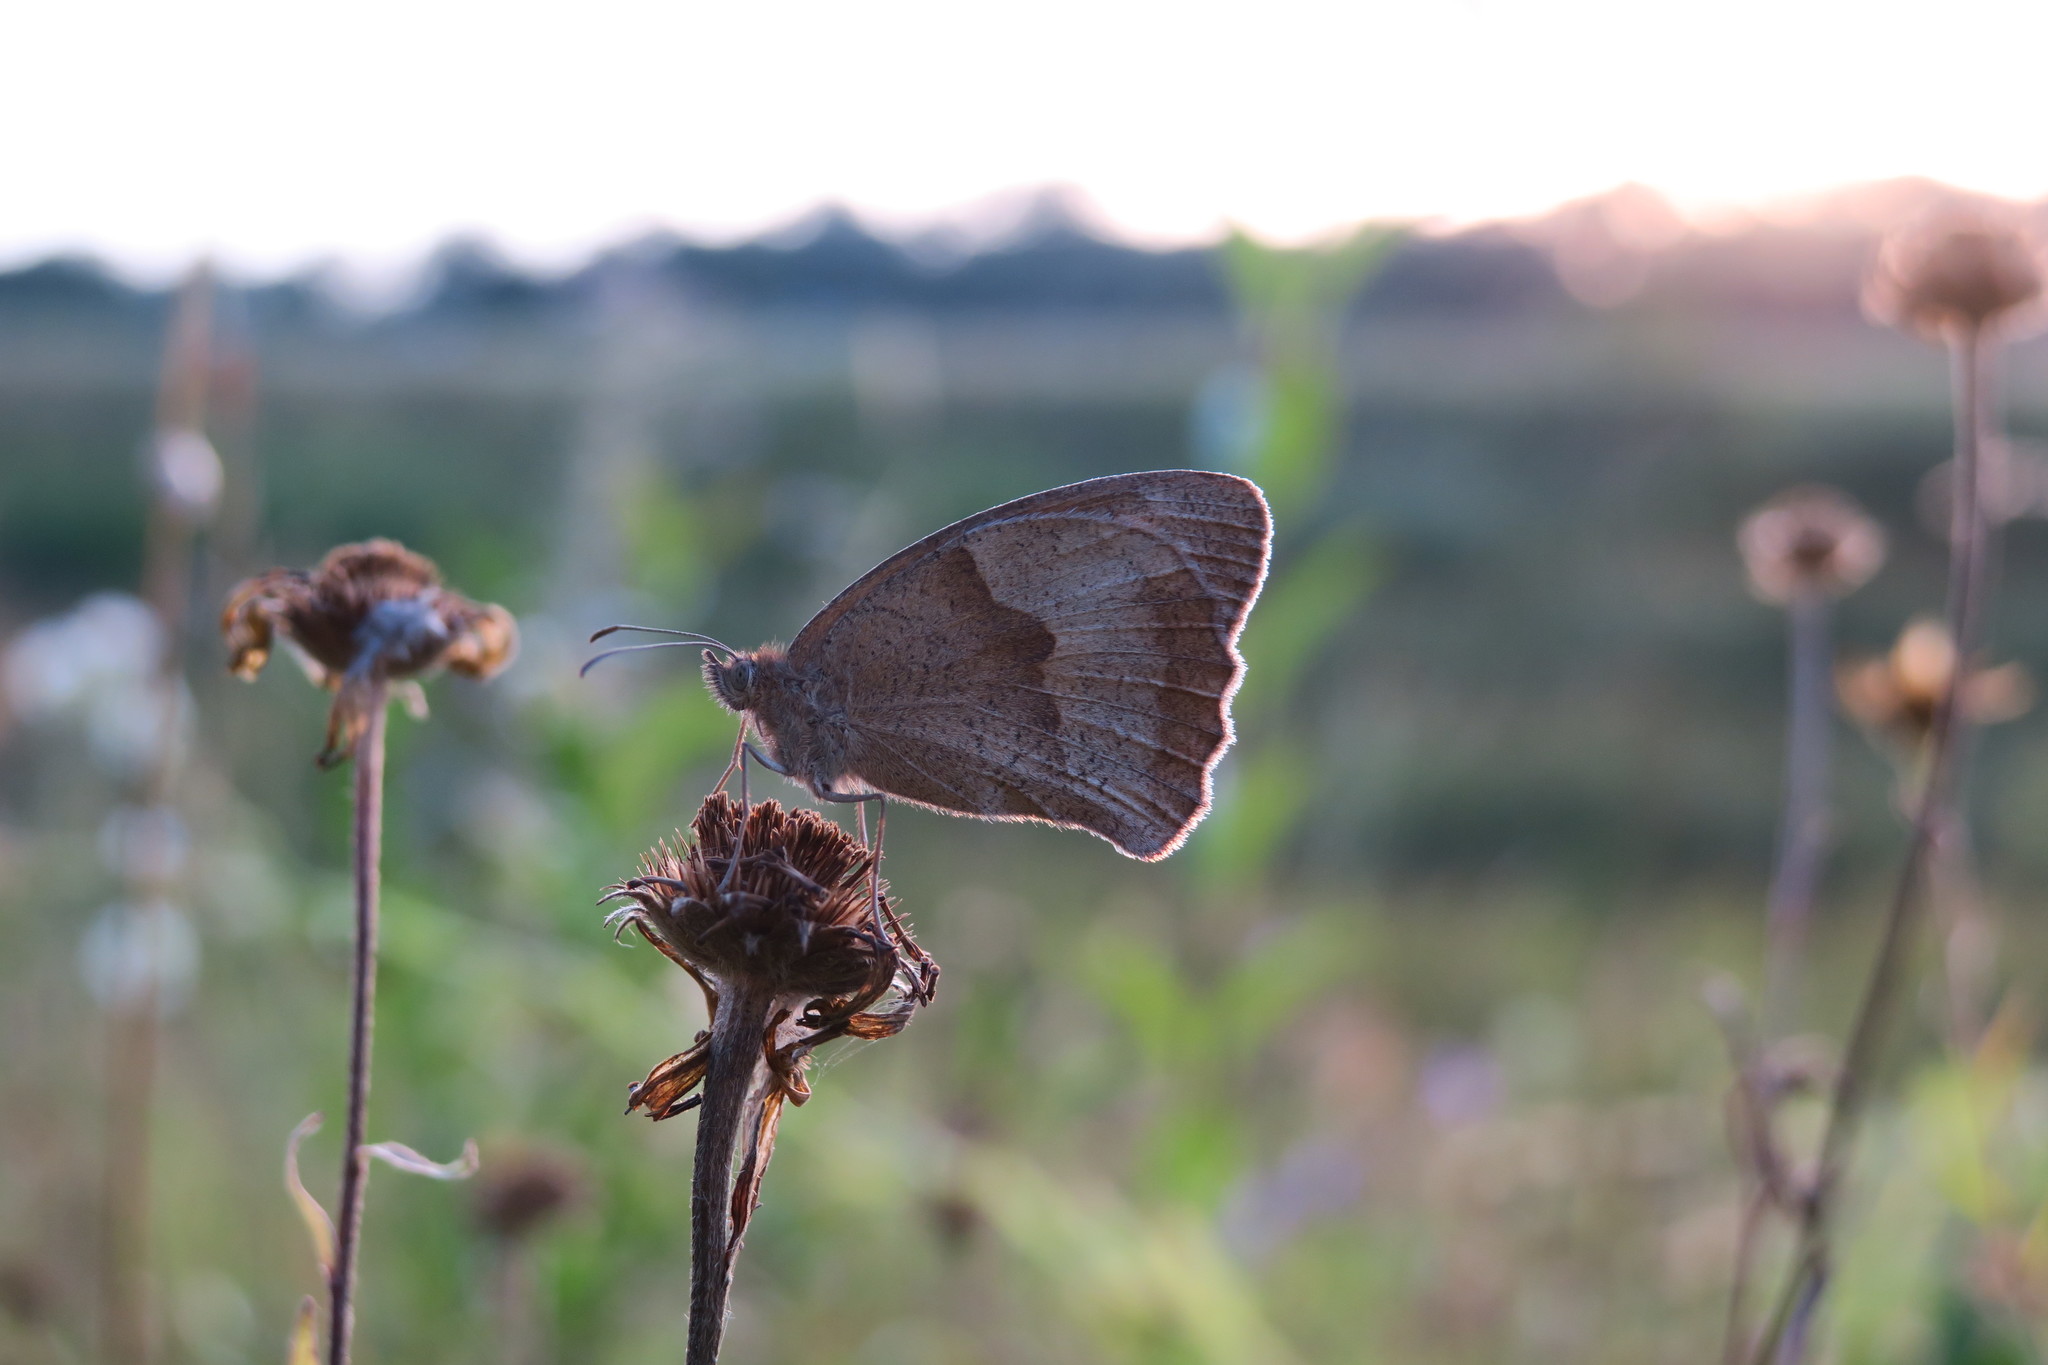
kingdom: Animalia
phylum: Arthropoda
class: Insecta
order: Lepidoptera
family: Nymphalidae
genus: Maniola
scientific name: Maniola jurtina
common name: Meadow brown
